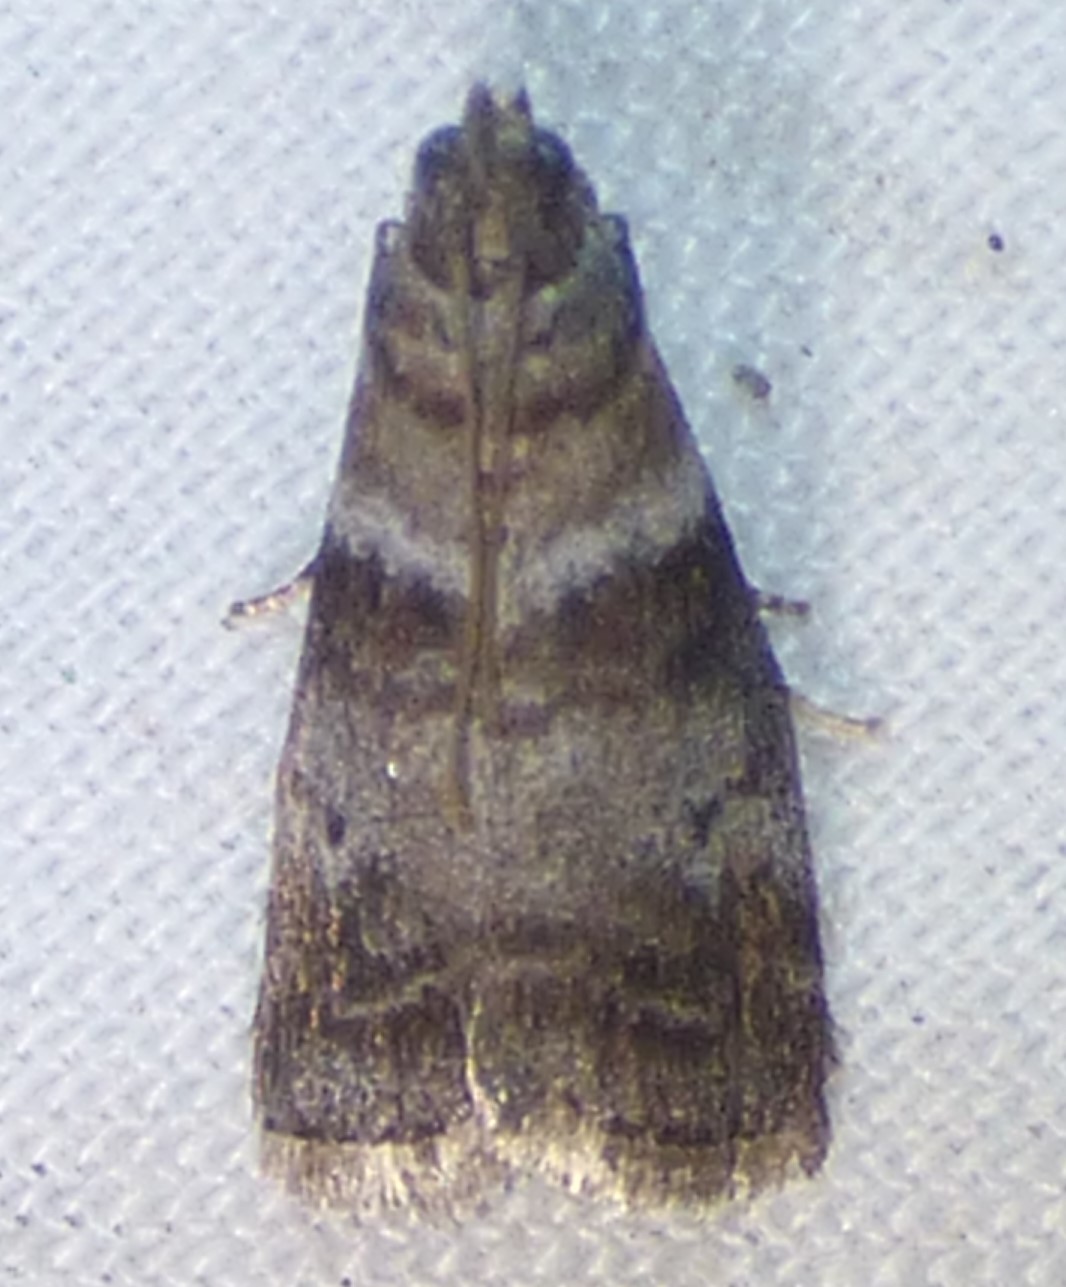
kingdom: Animalia
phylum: Arthropoda
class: Insecta
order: Lepidoptera
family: Pyralidae
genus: Sciota
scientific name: Sciota uvinella
